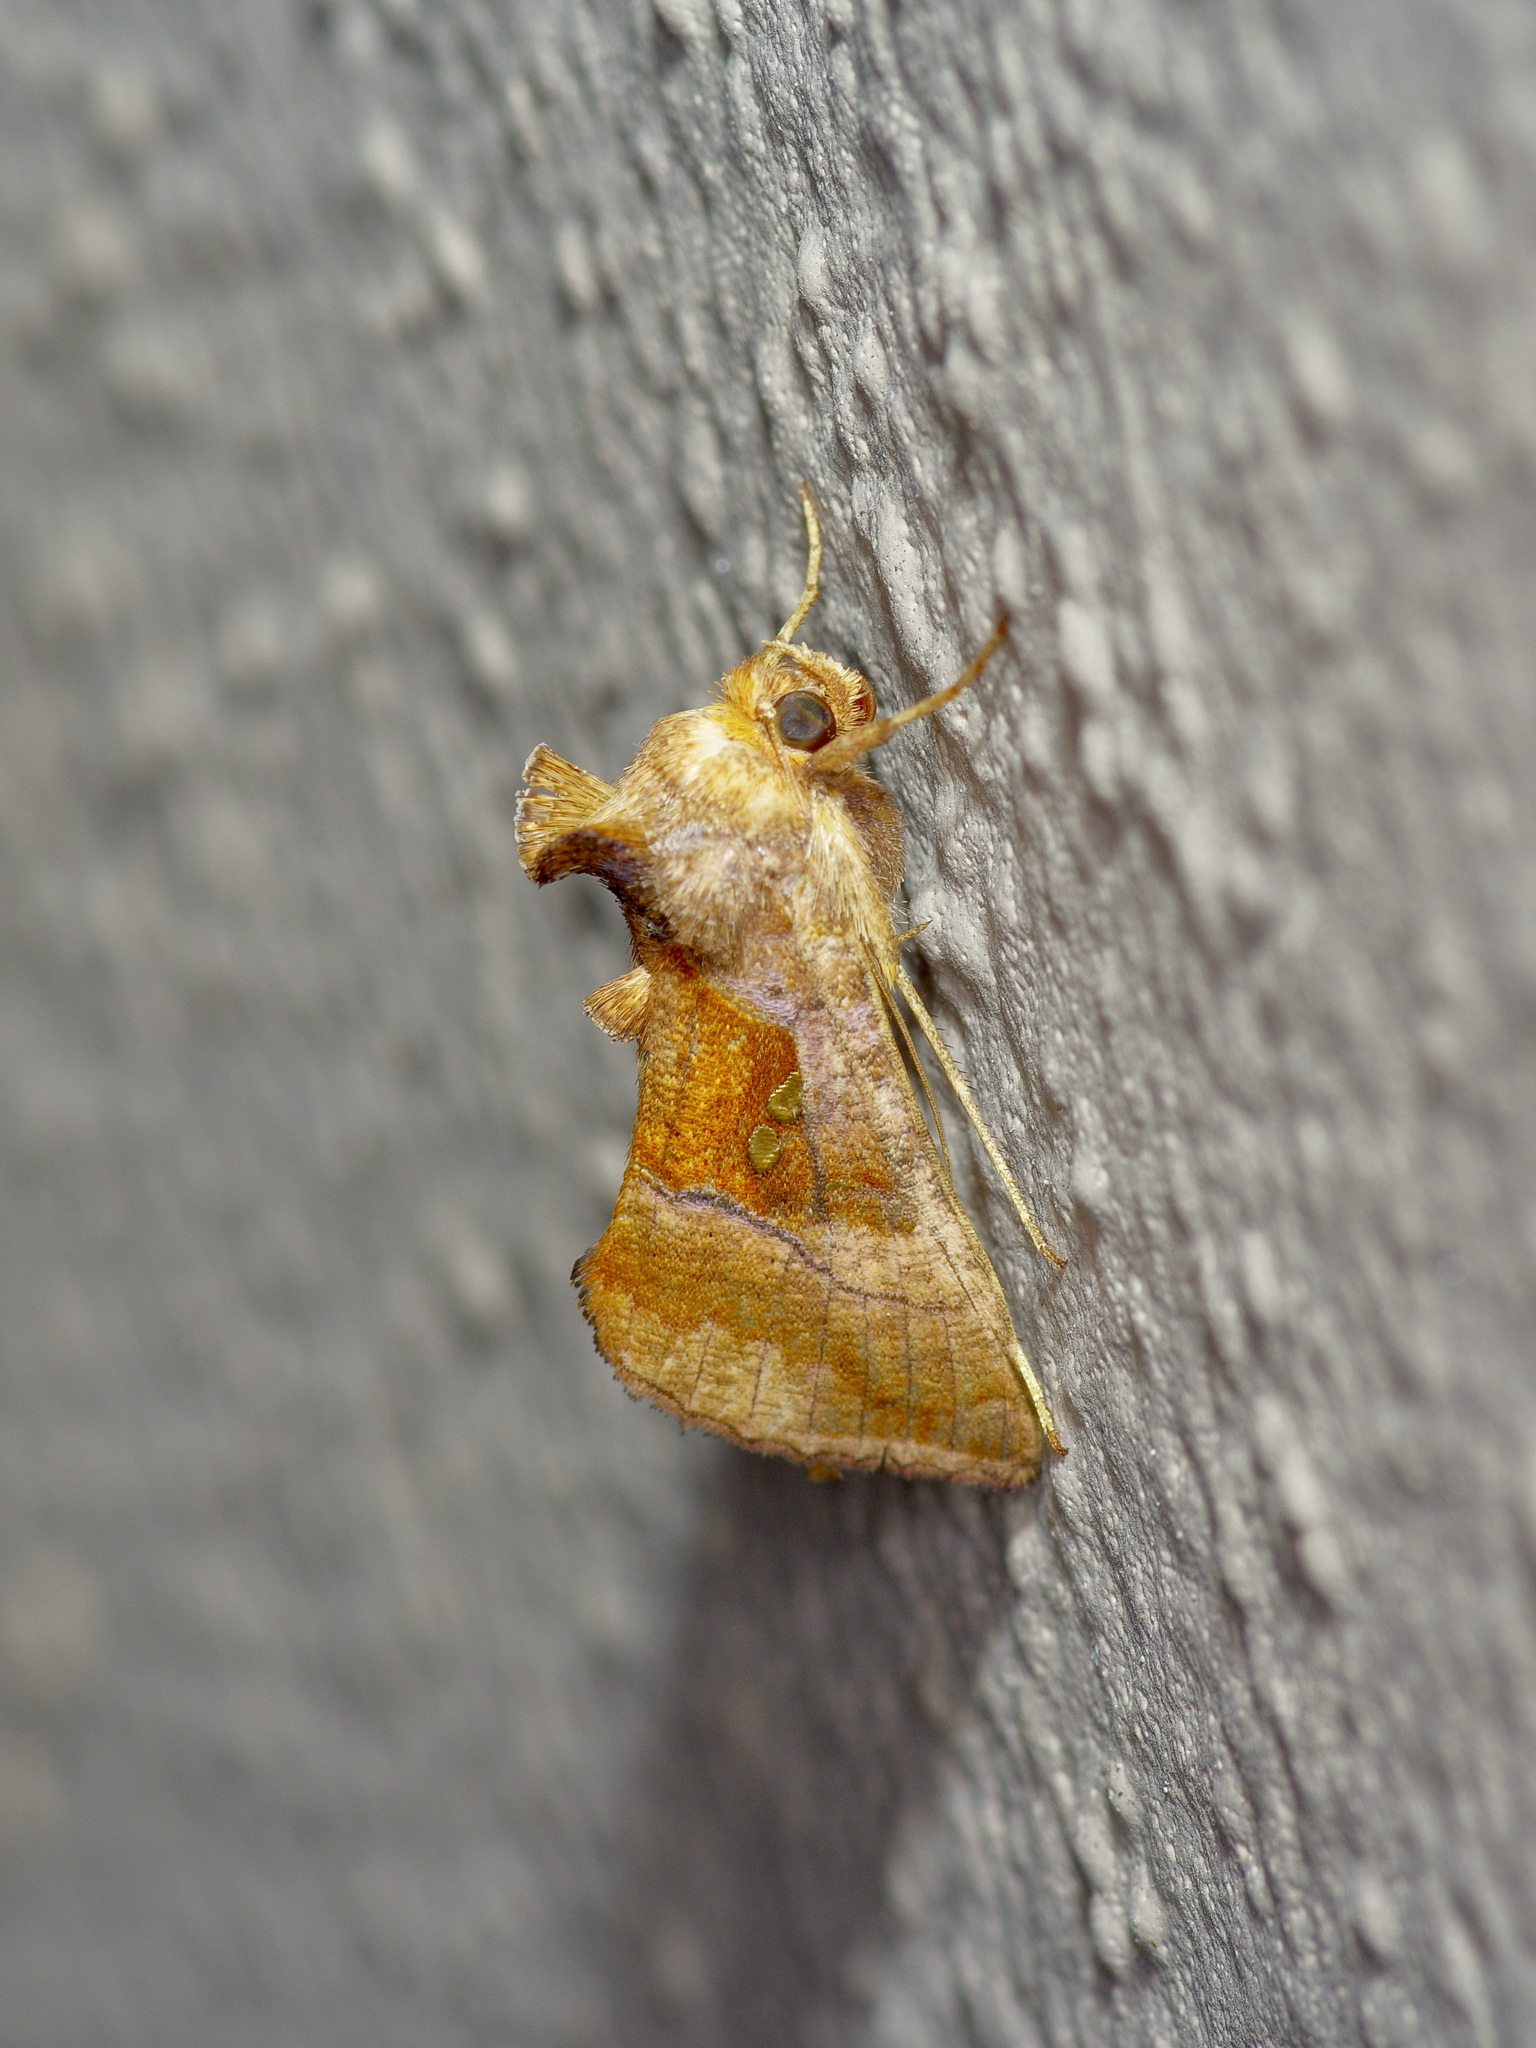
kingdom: Animalia
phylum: Arthropoda
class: Insecta
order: Lepidoptera
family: Noctuidae
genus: Enigmogramma
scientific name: Enigmogramma basigera
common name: Pink-washed looper moth
